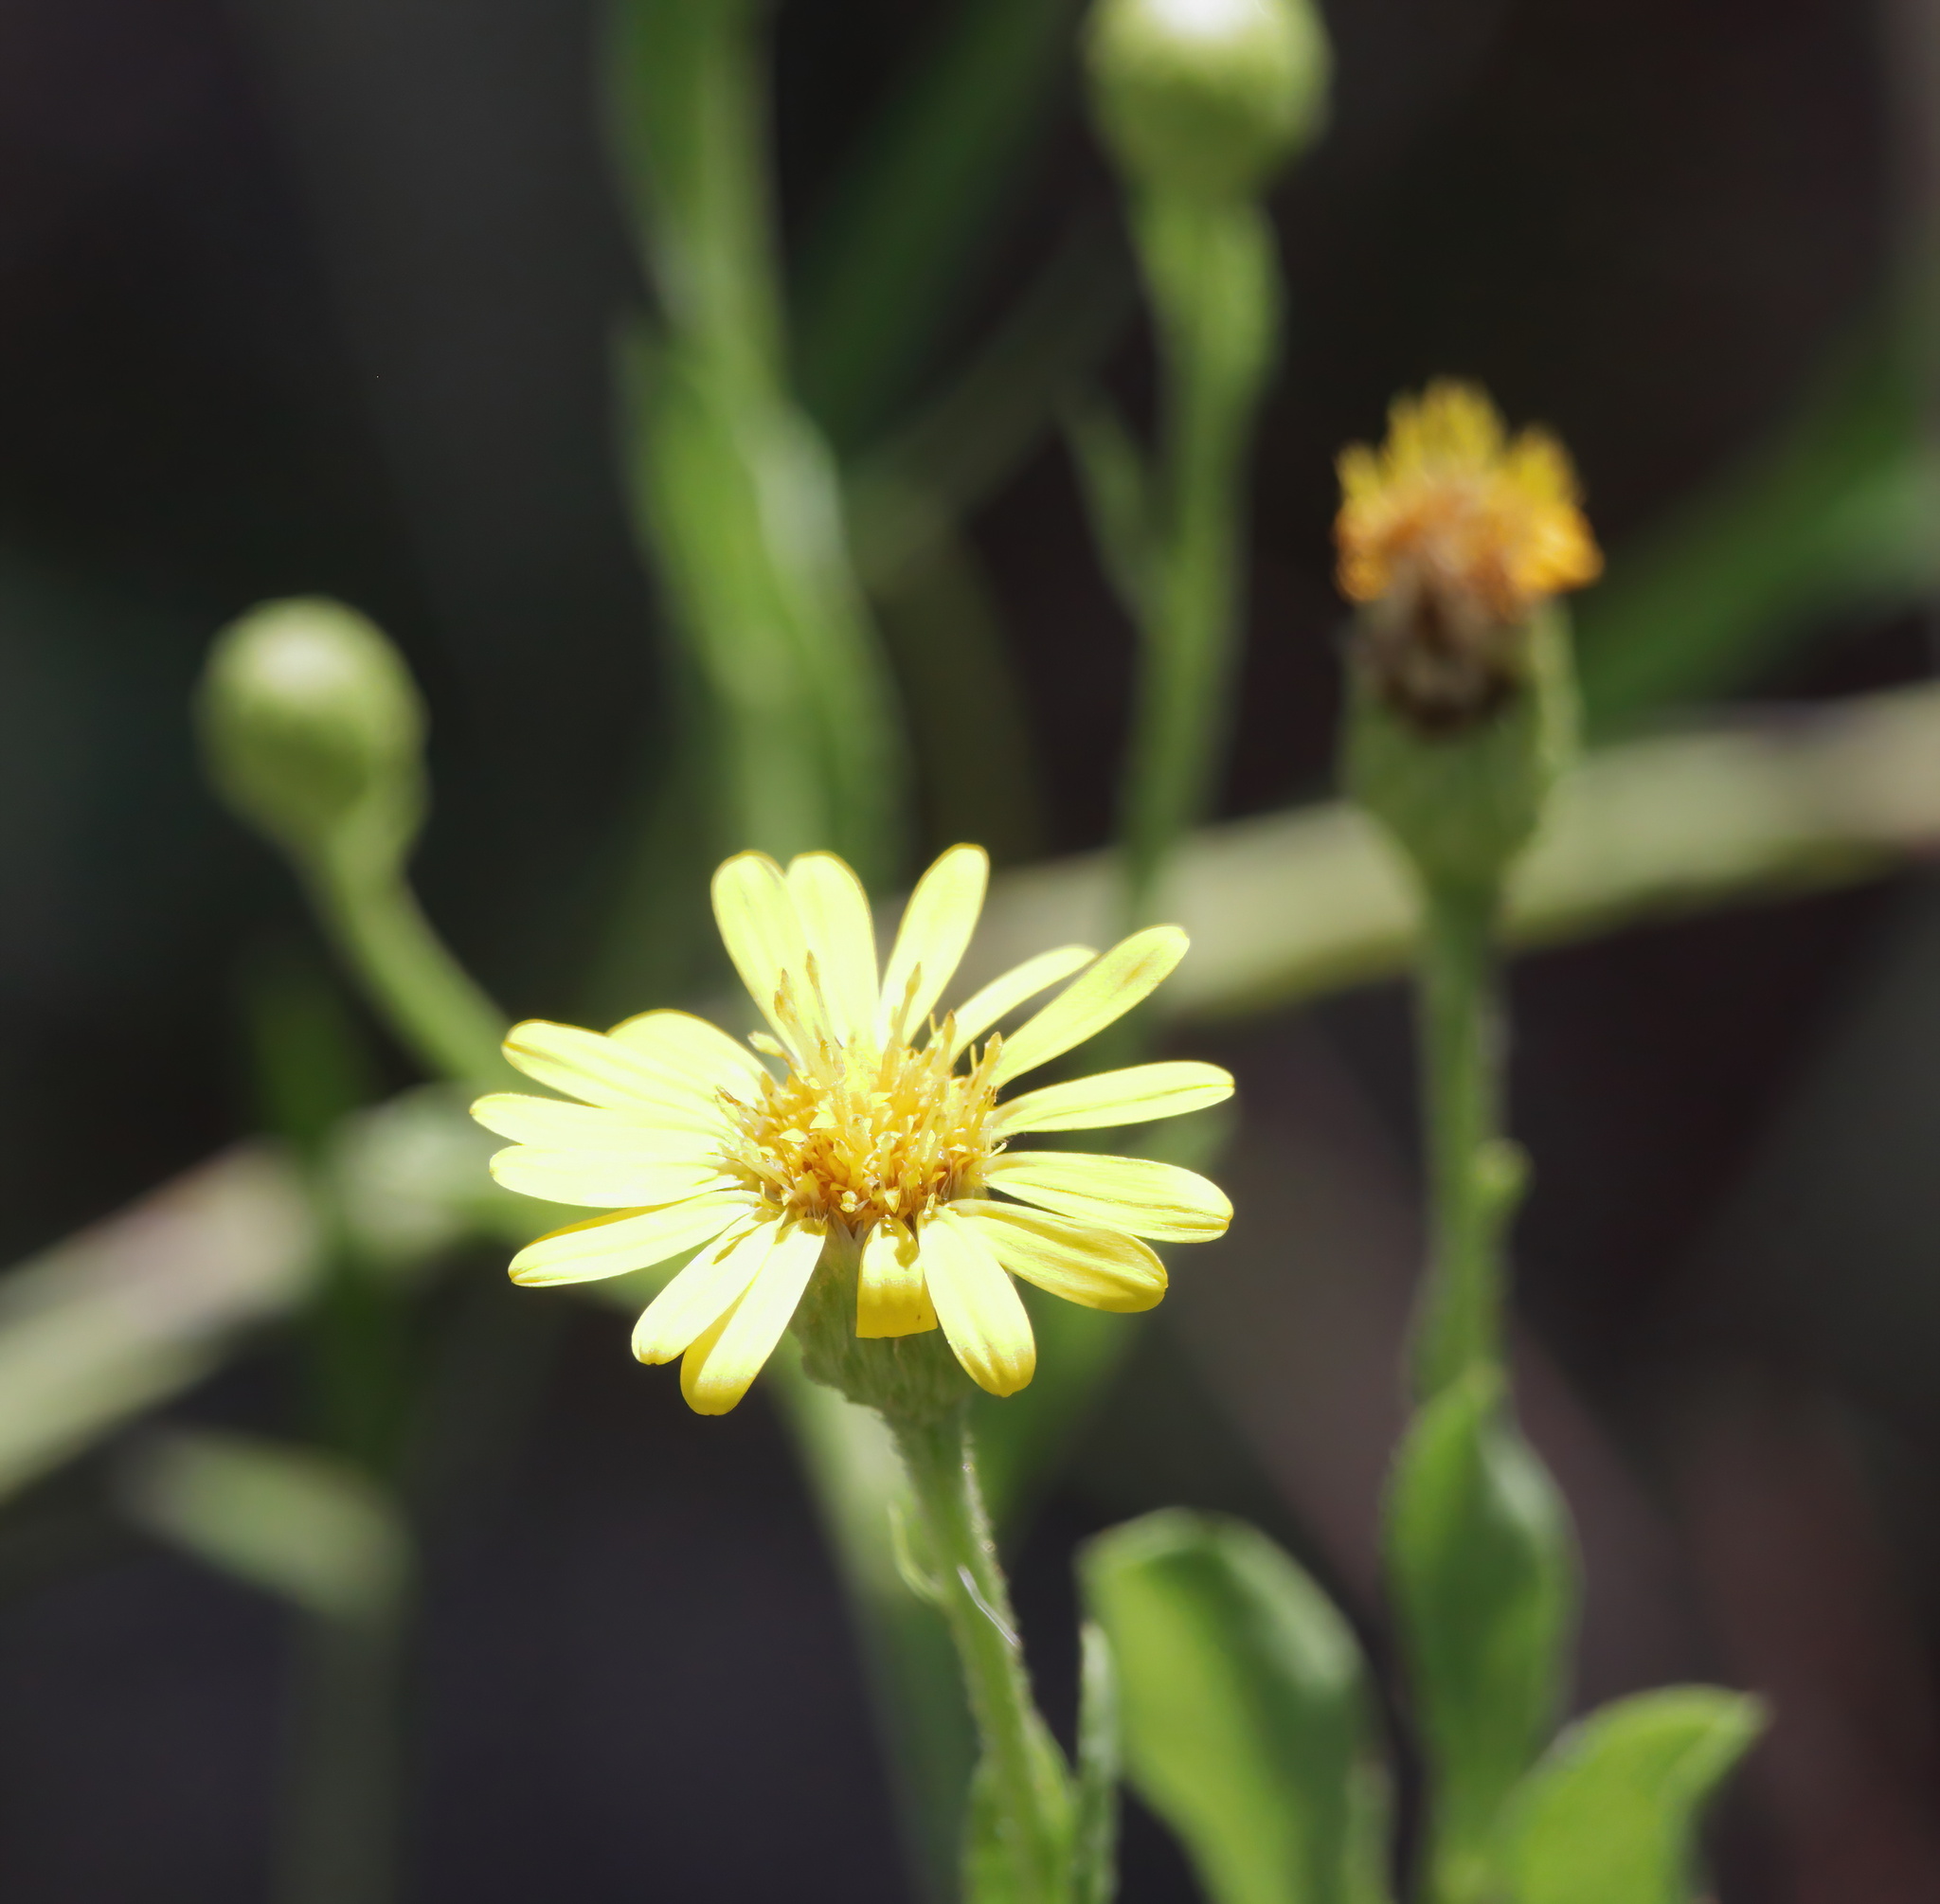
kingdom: Plantae
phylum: Tracheophyta
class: Magnoliopsida
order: Asterales
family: Asteraceae
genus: Heterotheca
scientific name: Heterotheca subaxillaris
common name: Camphorweed
